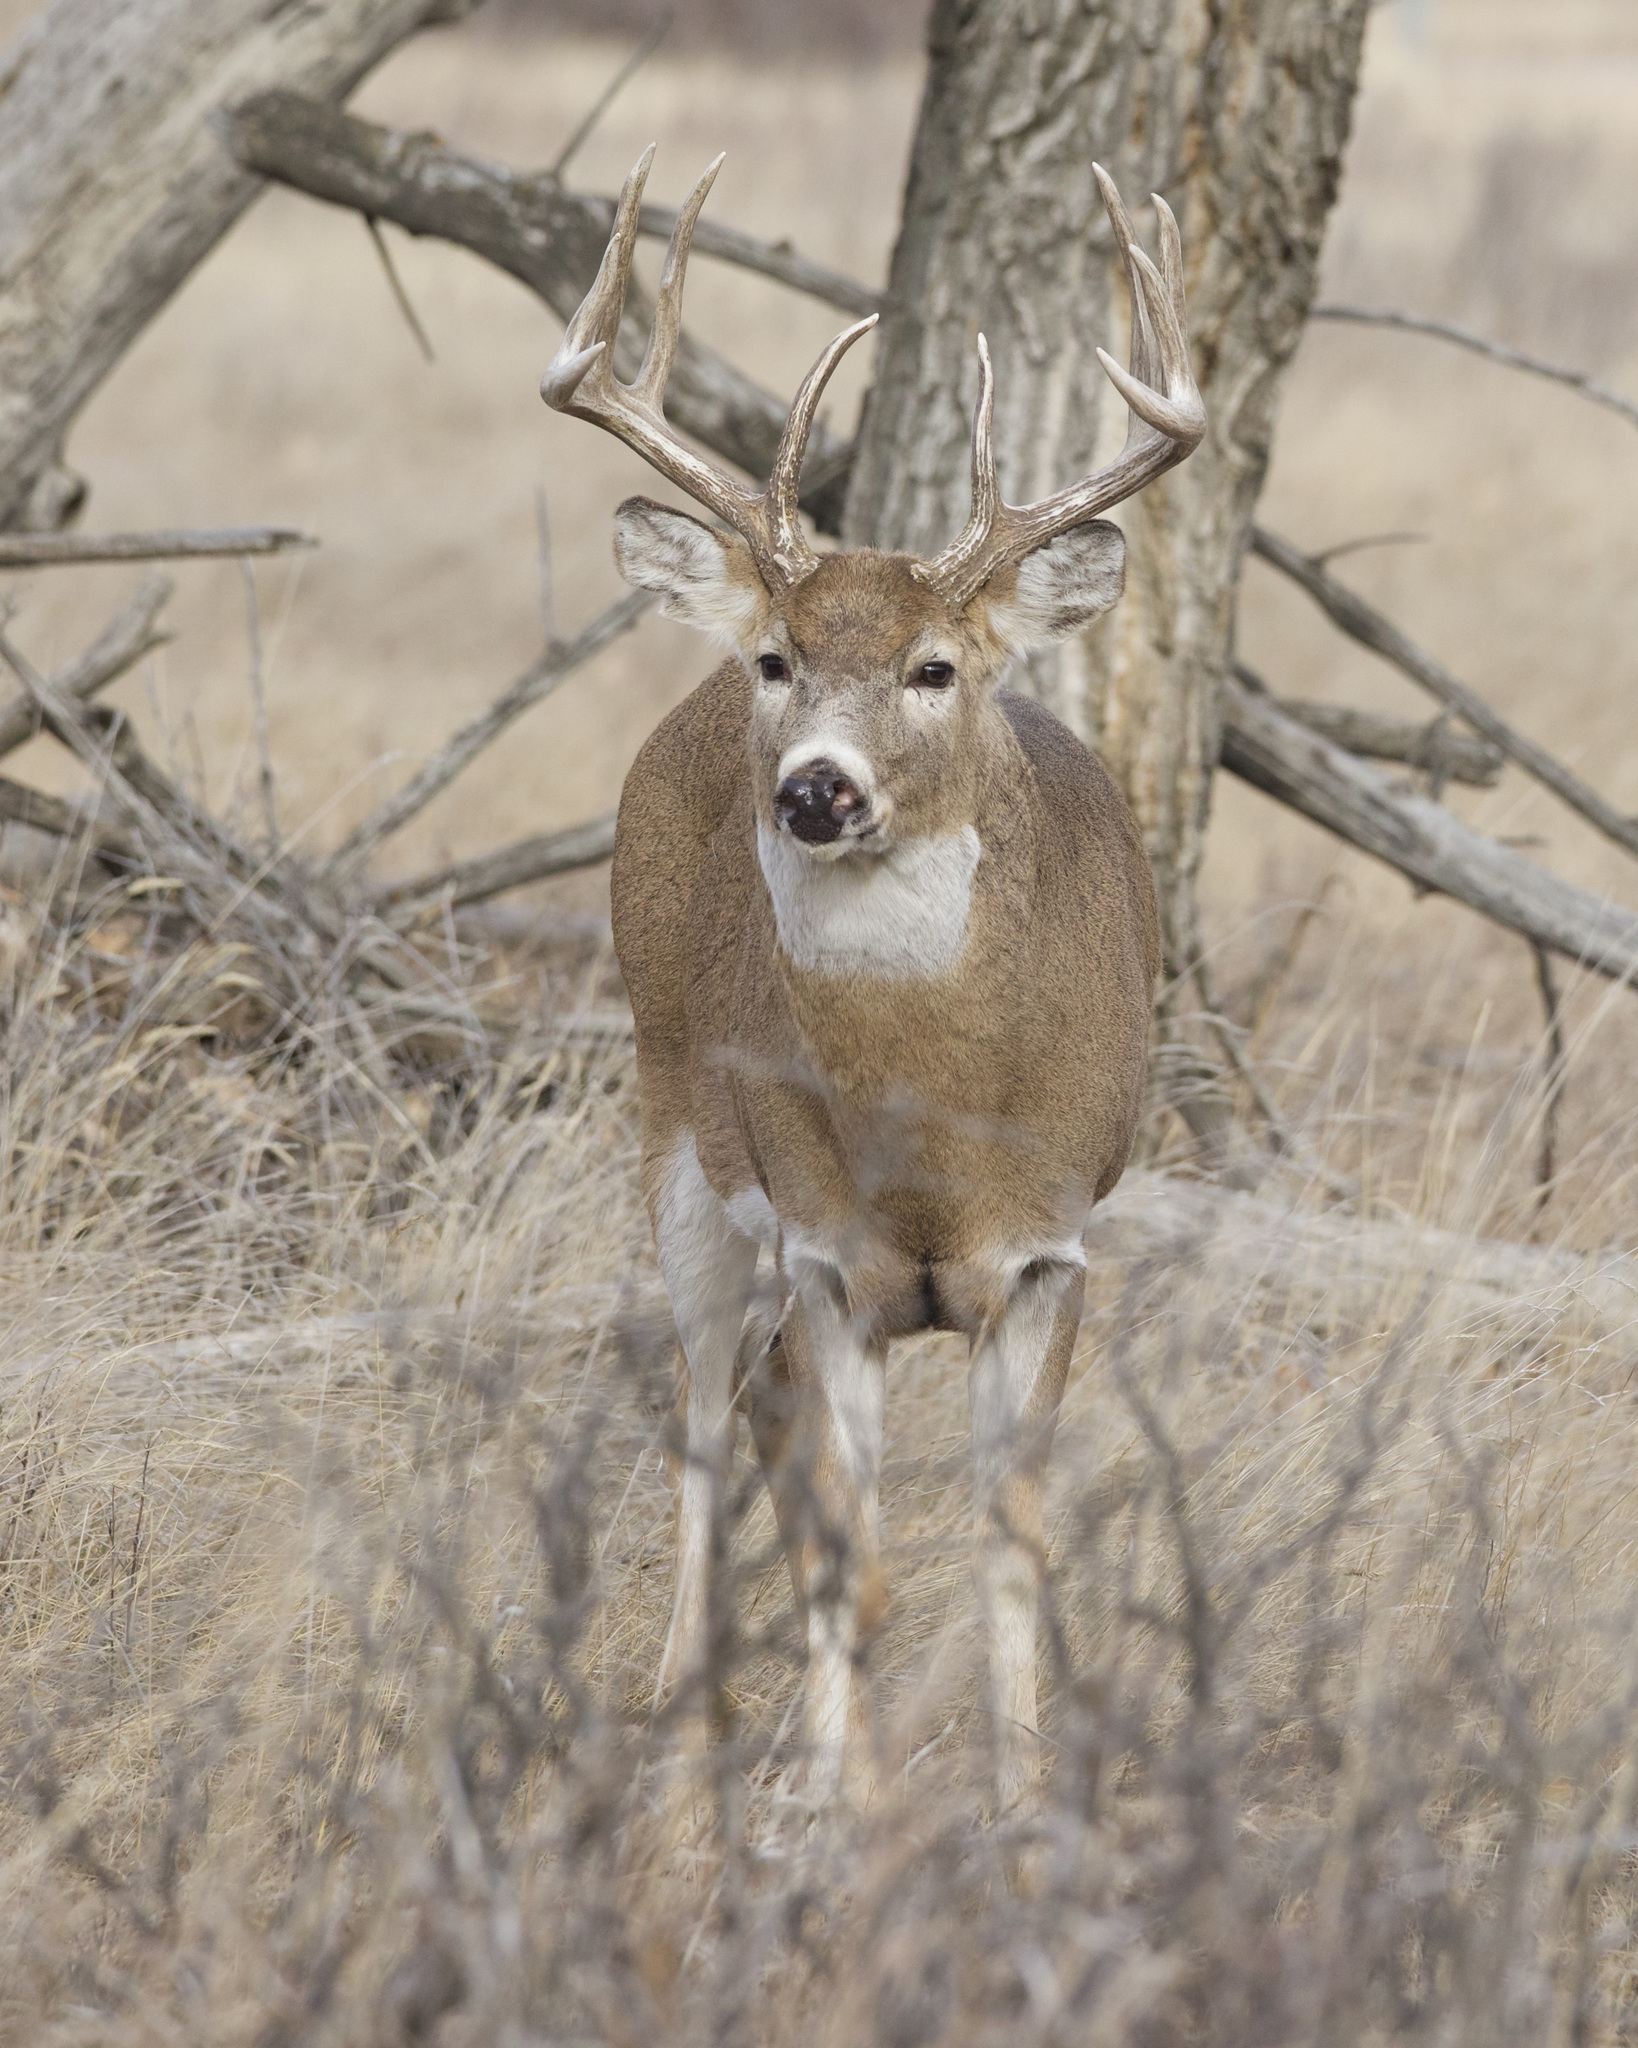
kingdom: Animalia
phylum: Chordata
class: Mammalia
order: Artiodactyla
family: Cervidae
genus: Odocoileus
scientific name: Odocoileus virginianus
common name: White-tailed deer
